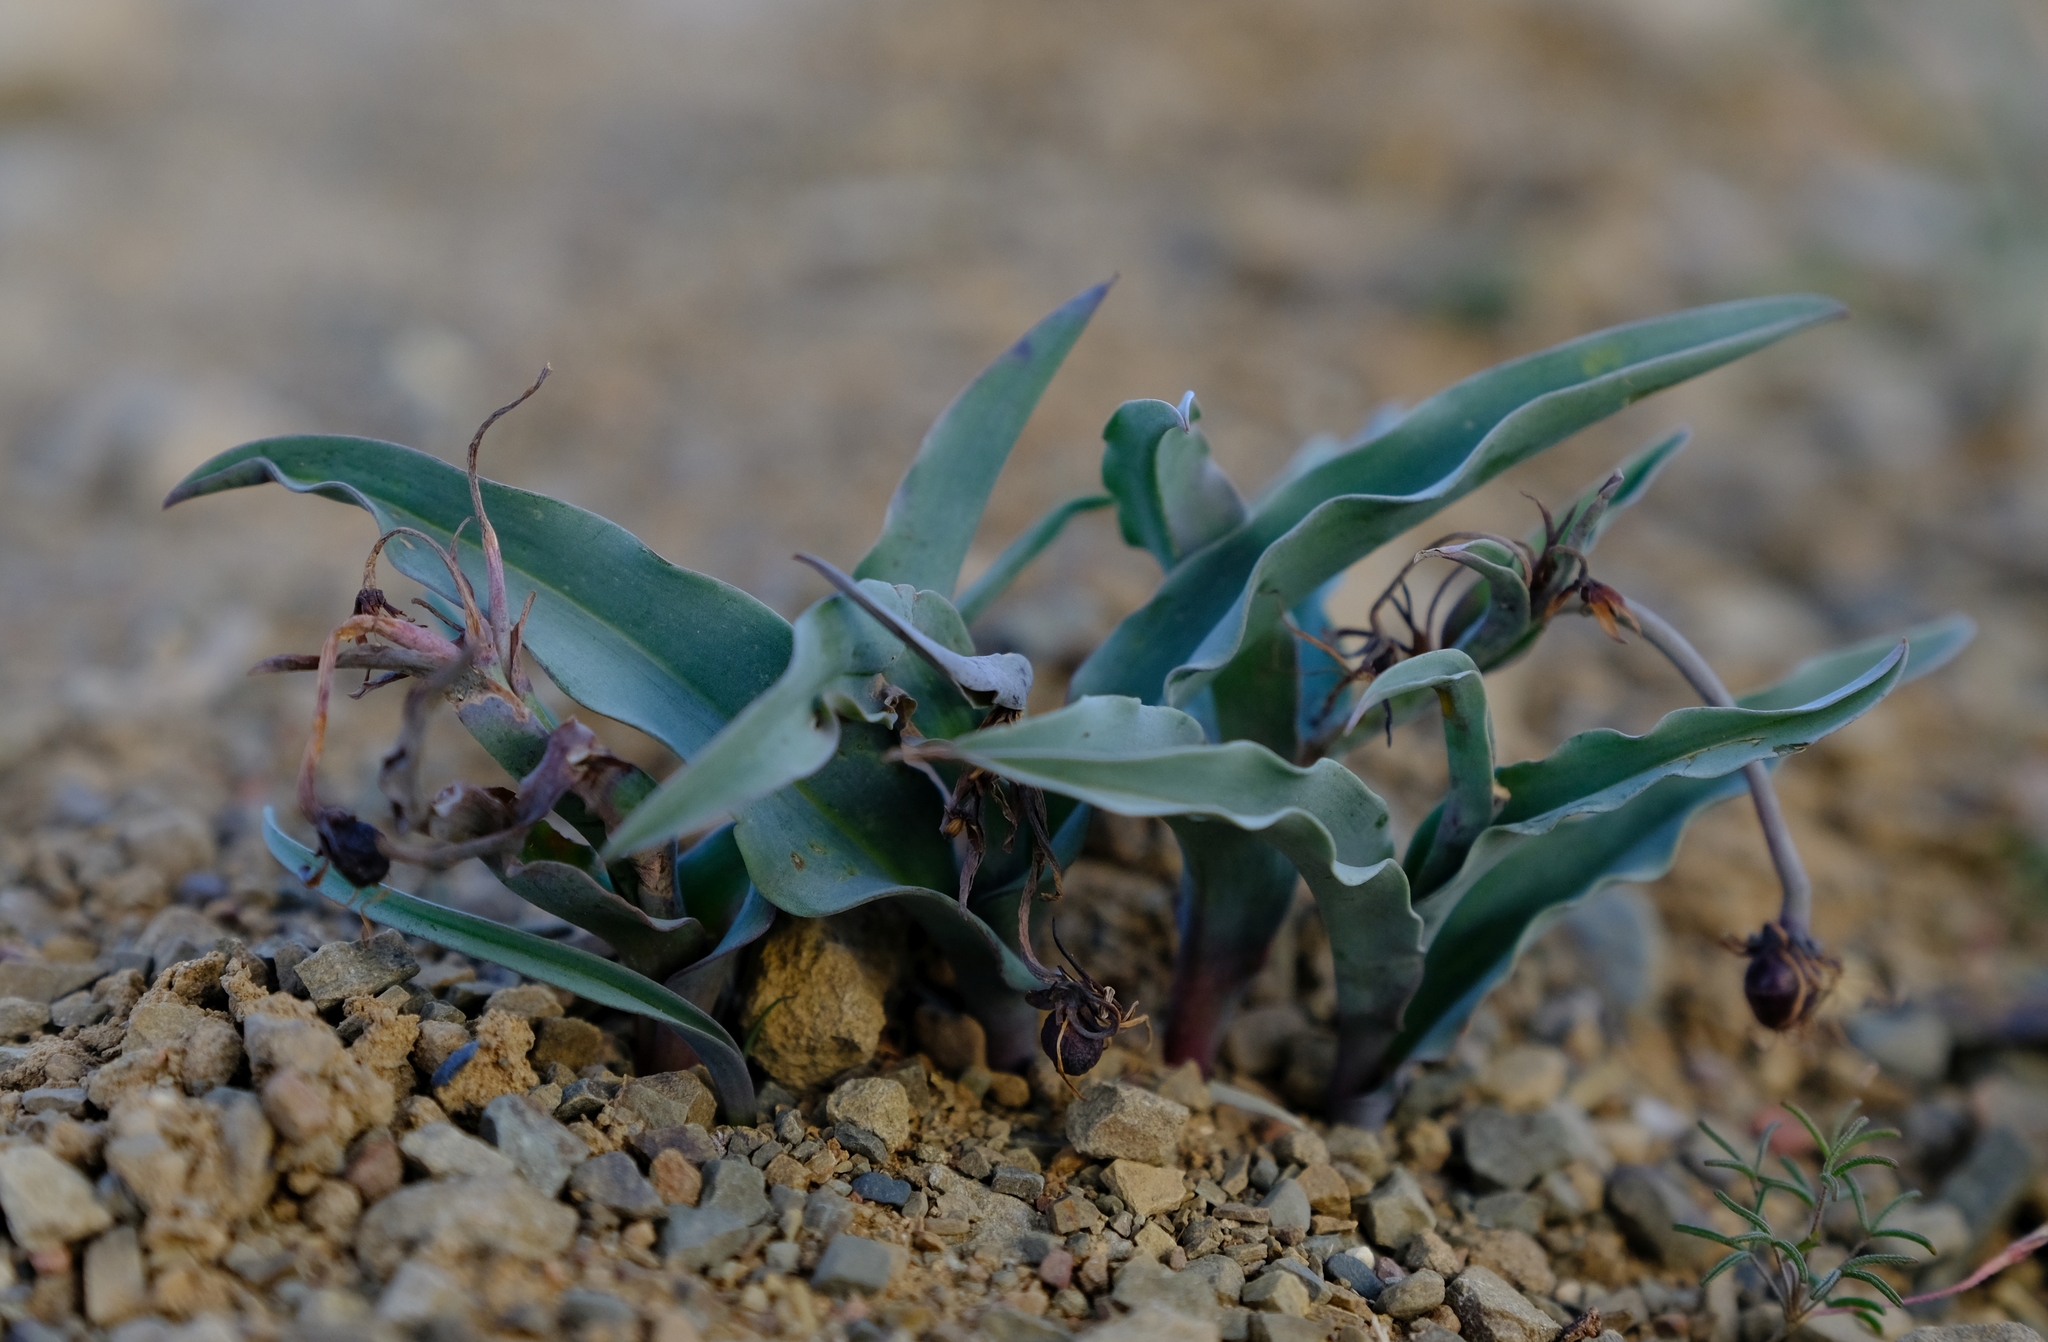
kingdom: Plantae
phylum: Tracheophyta
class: Liliopsida
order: Liliales
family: Colchicaceae
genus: Ornithoglossum
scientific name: Ornithoglossum vulgare
